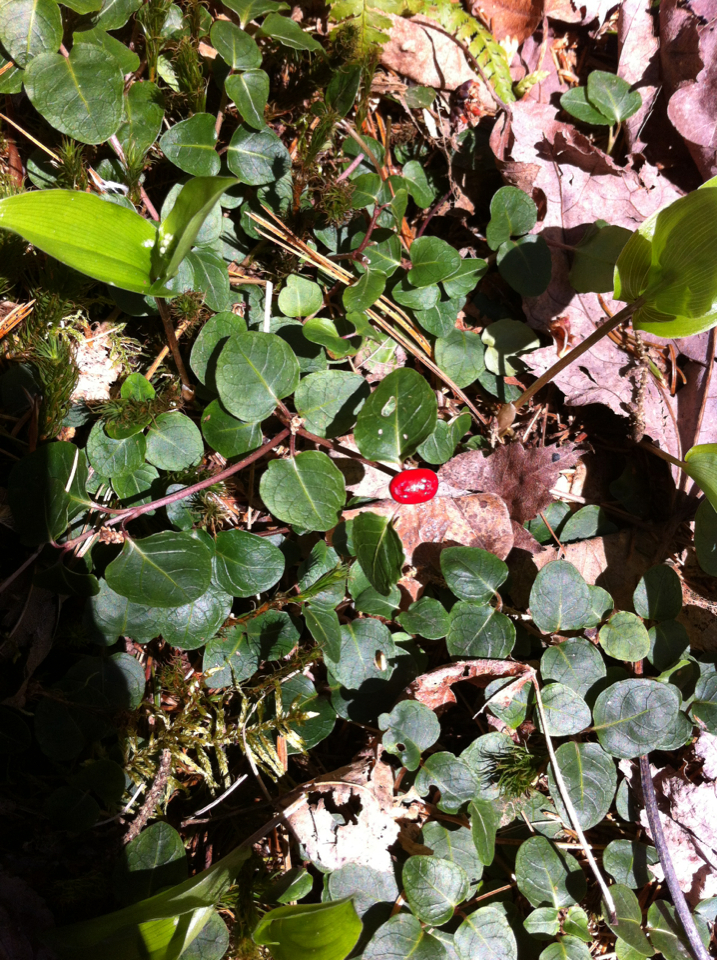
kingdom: Plantae
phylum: Tracheophyta
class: Magnoliopsida
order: Gentianales
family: Rubiaceae
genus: Mitchella
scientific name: Mitchella repens
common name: Partridge-berry
